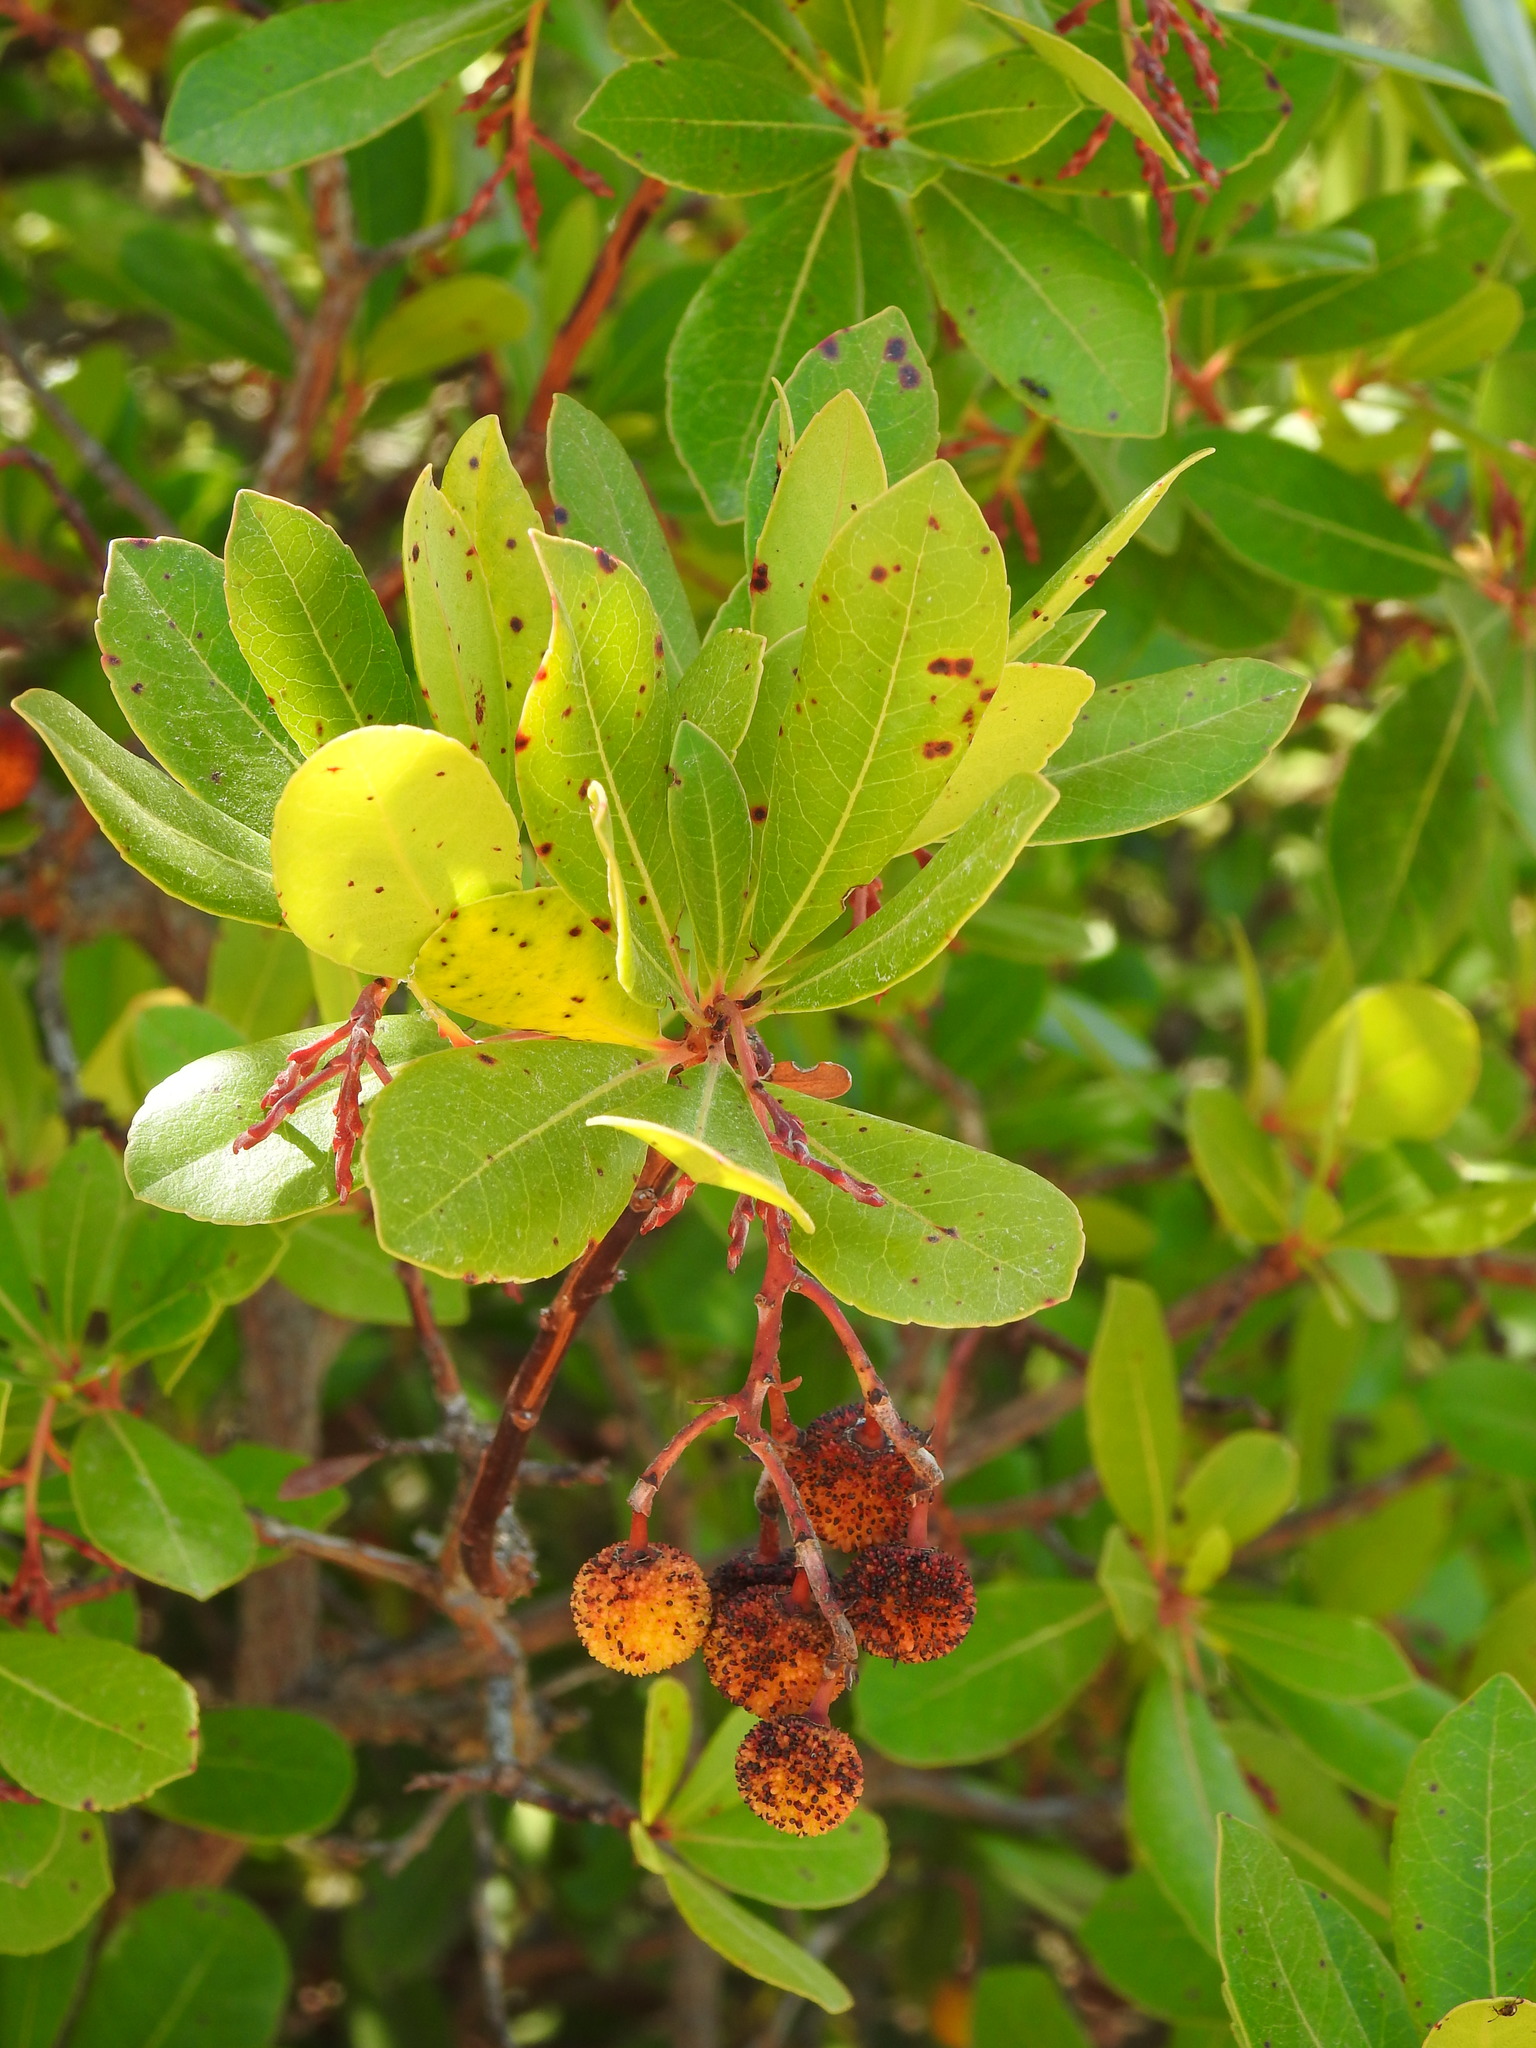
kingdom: Plantae
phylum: Tracheophyta
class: Magnoliopsida
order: Ericales
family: Ericaceae
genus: Arbutus
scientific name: Arbutus unedo
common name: Strawberry-tree
